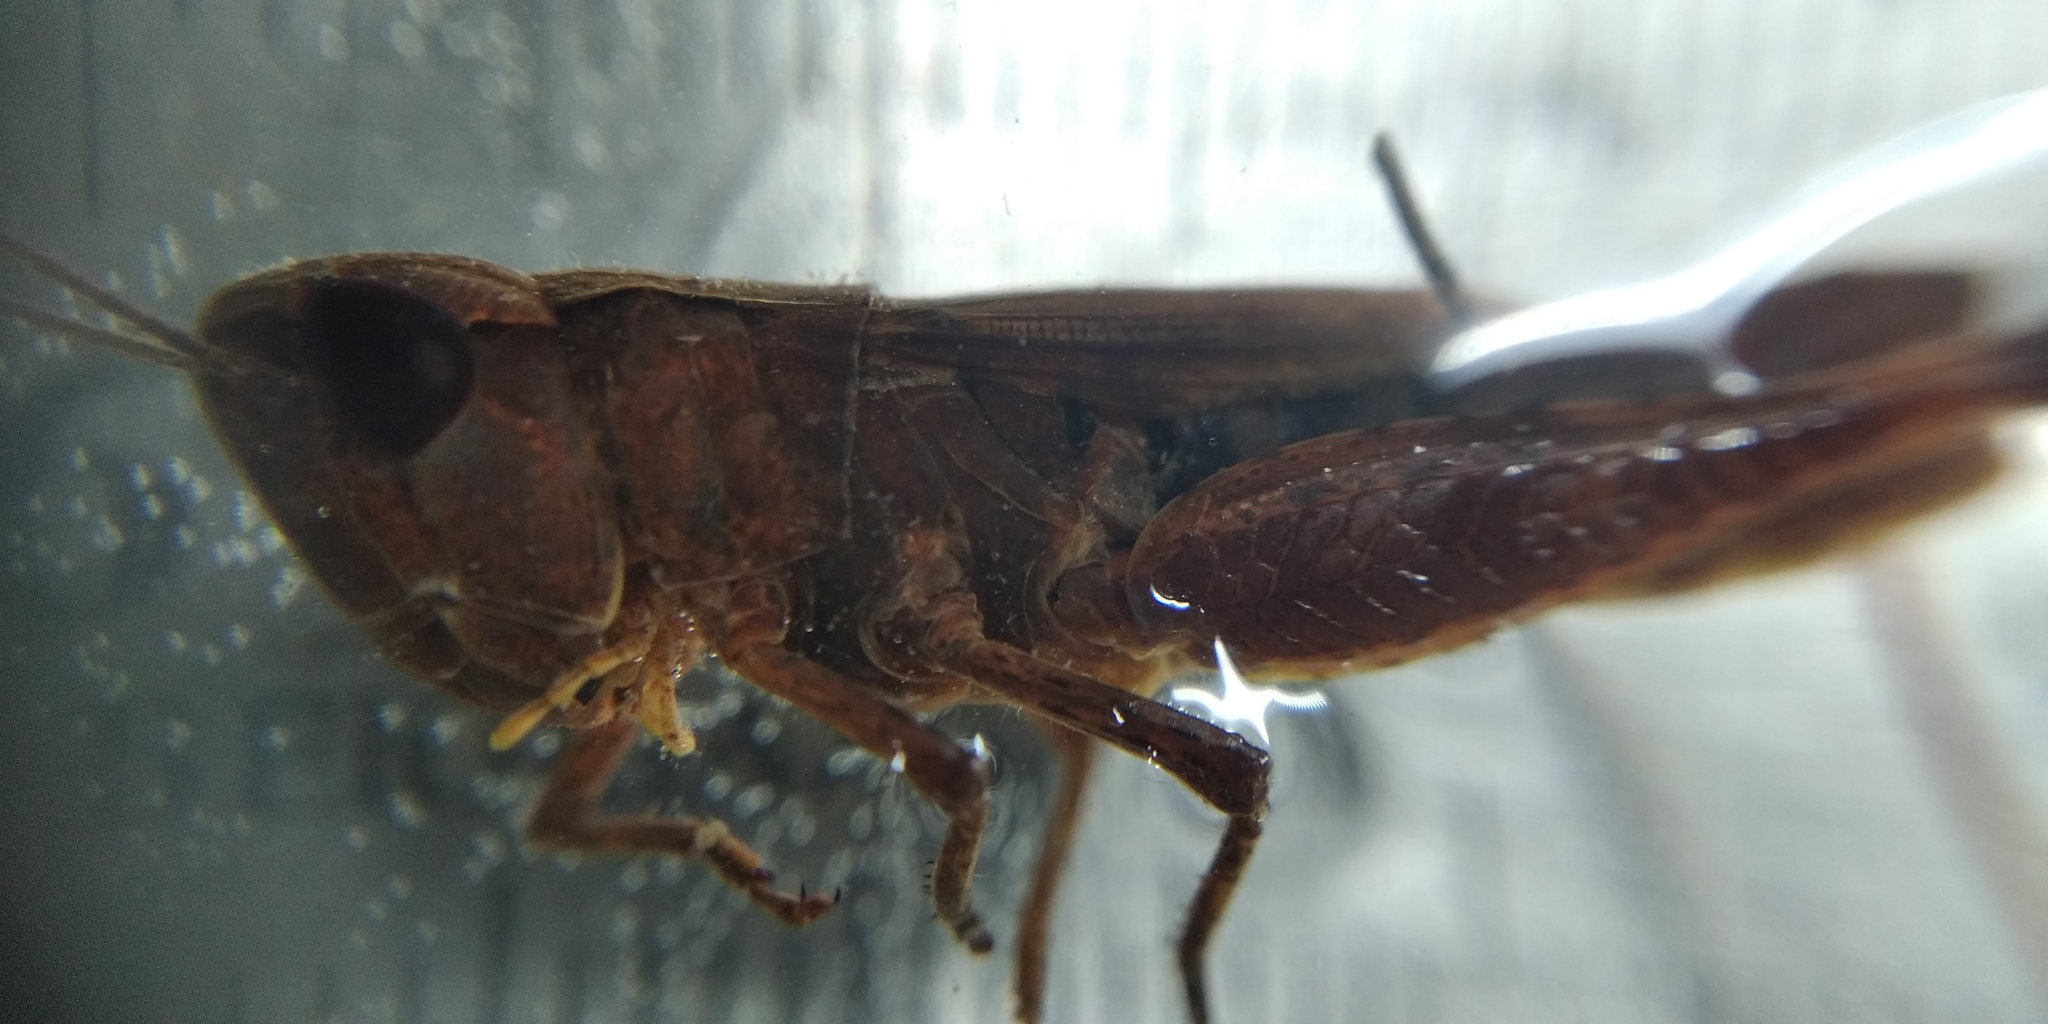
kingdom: Animalia
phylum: Arthropoda
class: Insecta
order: Orthoptera
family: Acrididae
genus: Pseudochorthippus
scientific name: Pseudochorthippus parallelus
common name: Meadow grasshopper
